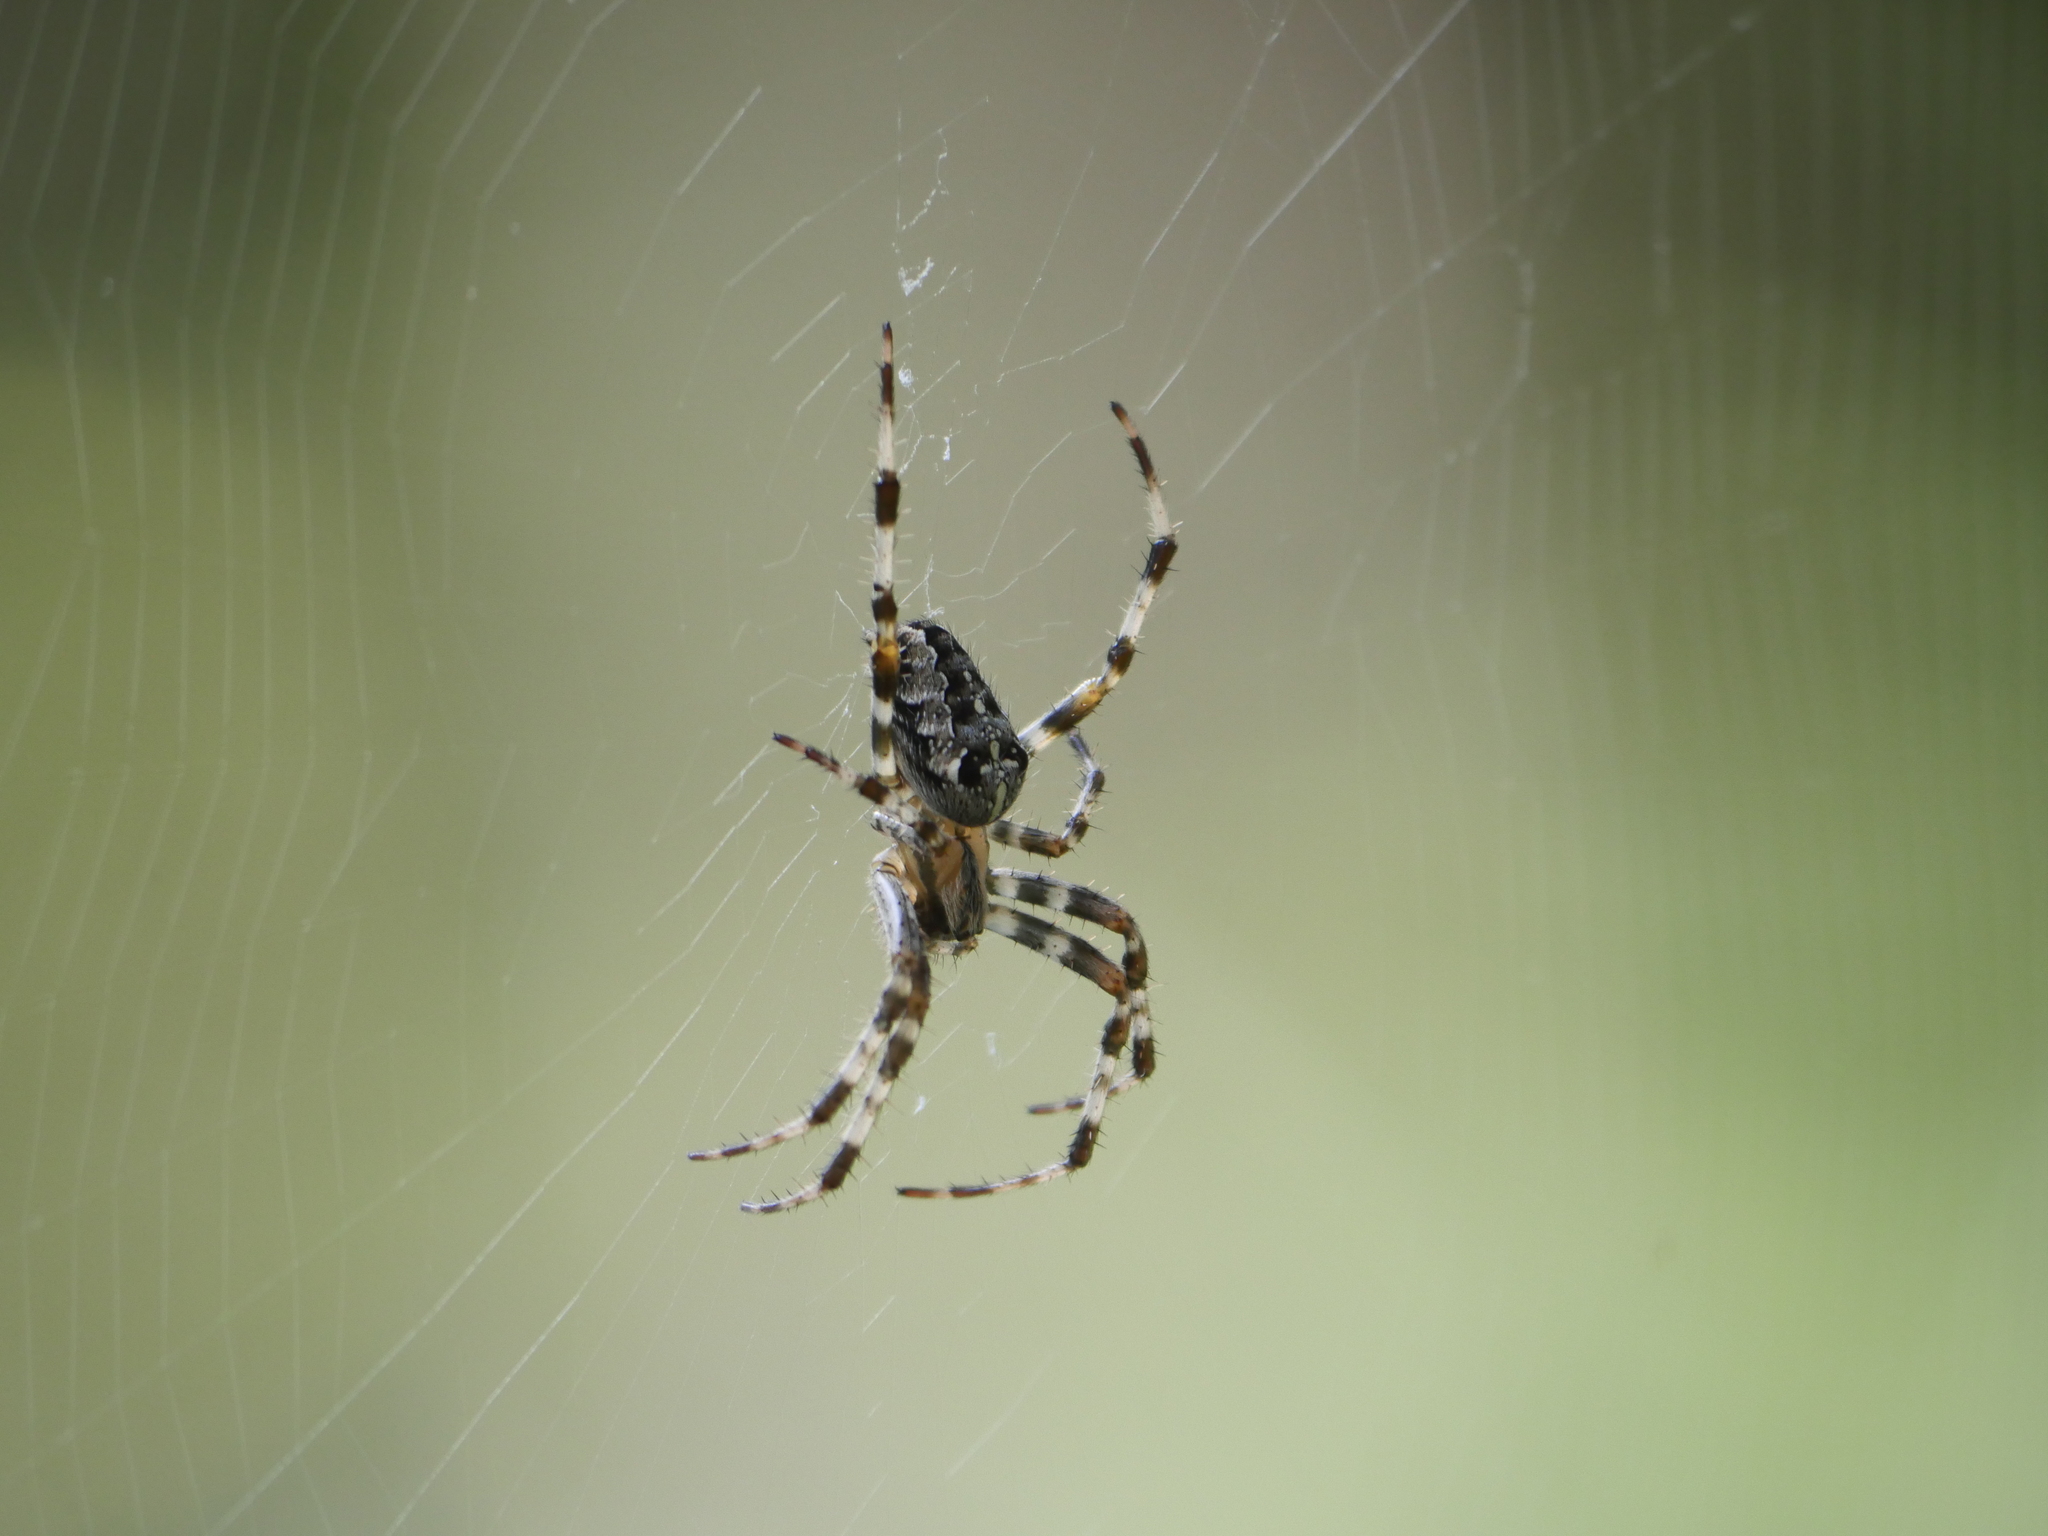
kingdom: Animalia
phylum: Arthropoda
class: Arachnida
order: Araneae
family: Araneidae
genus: Araneus
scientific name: Araneus diadematus
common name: Cross orbweaver
